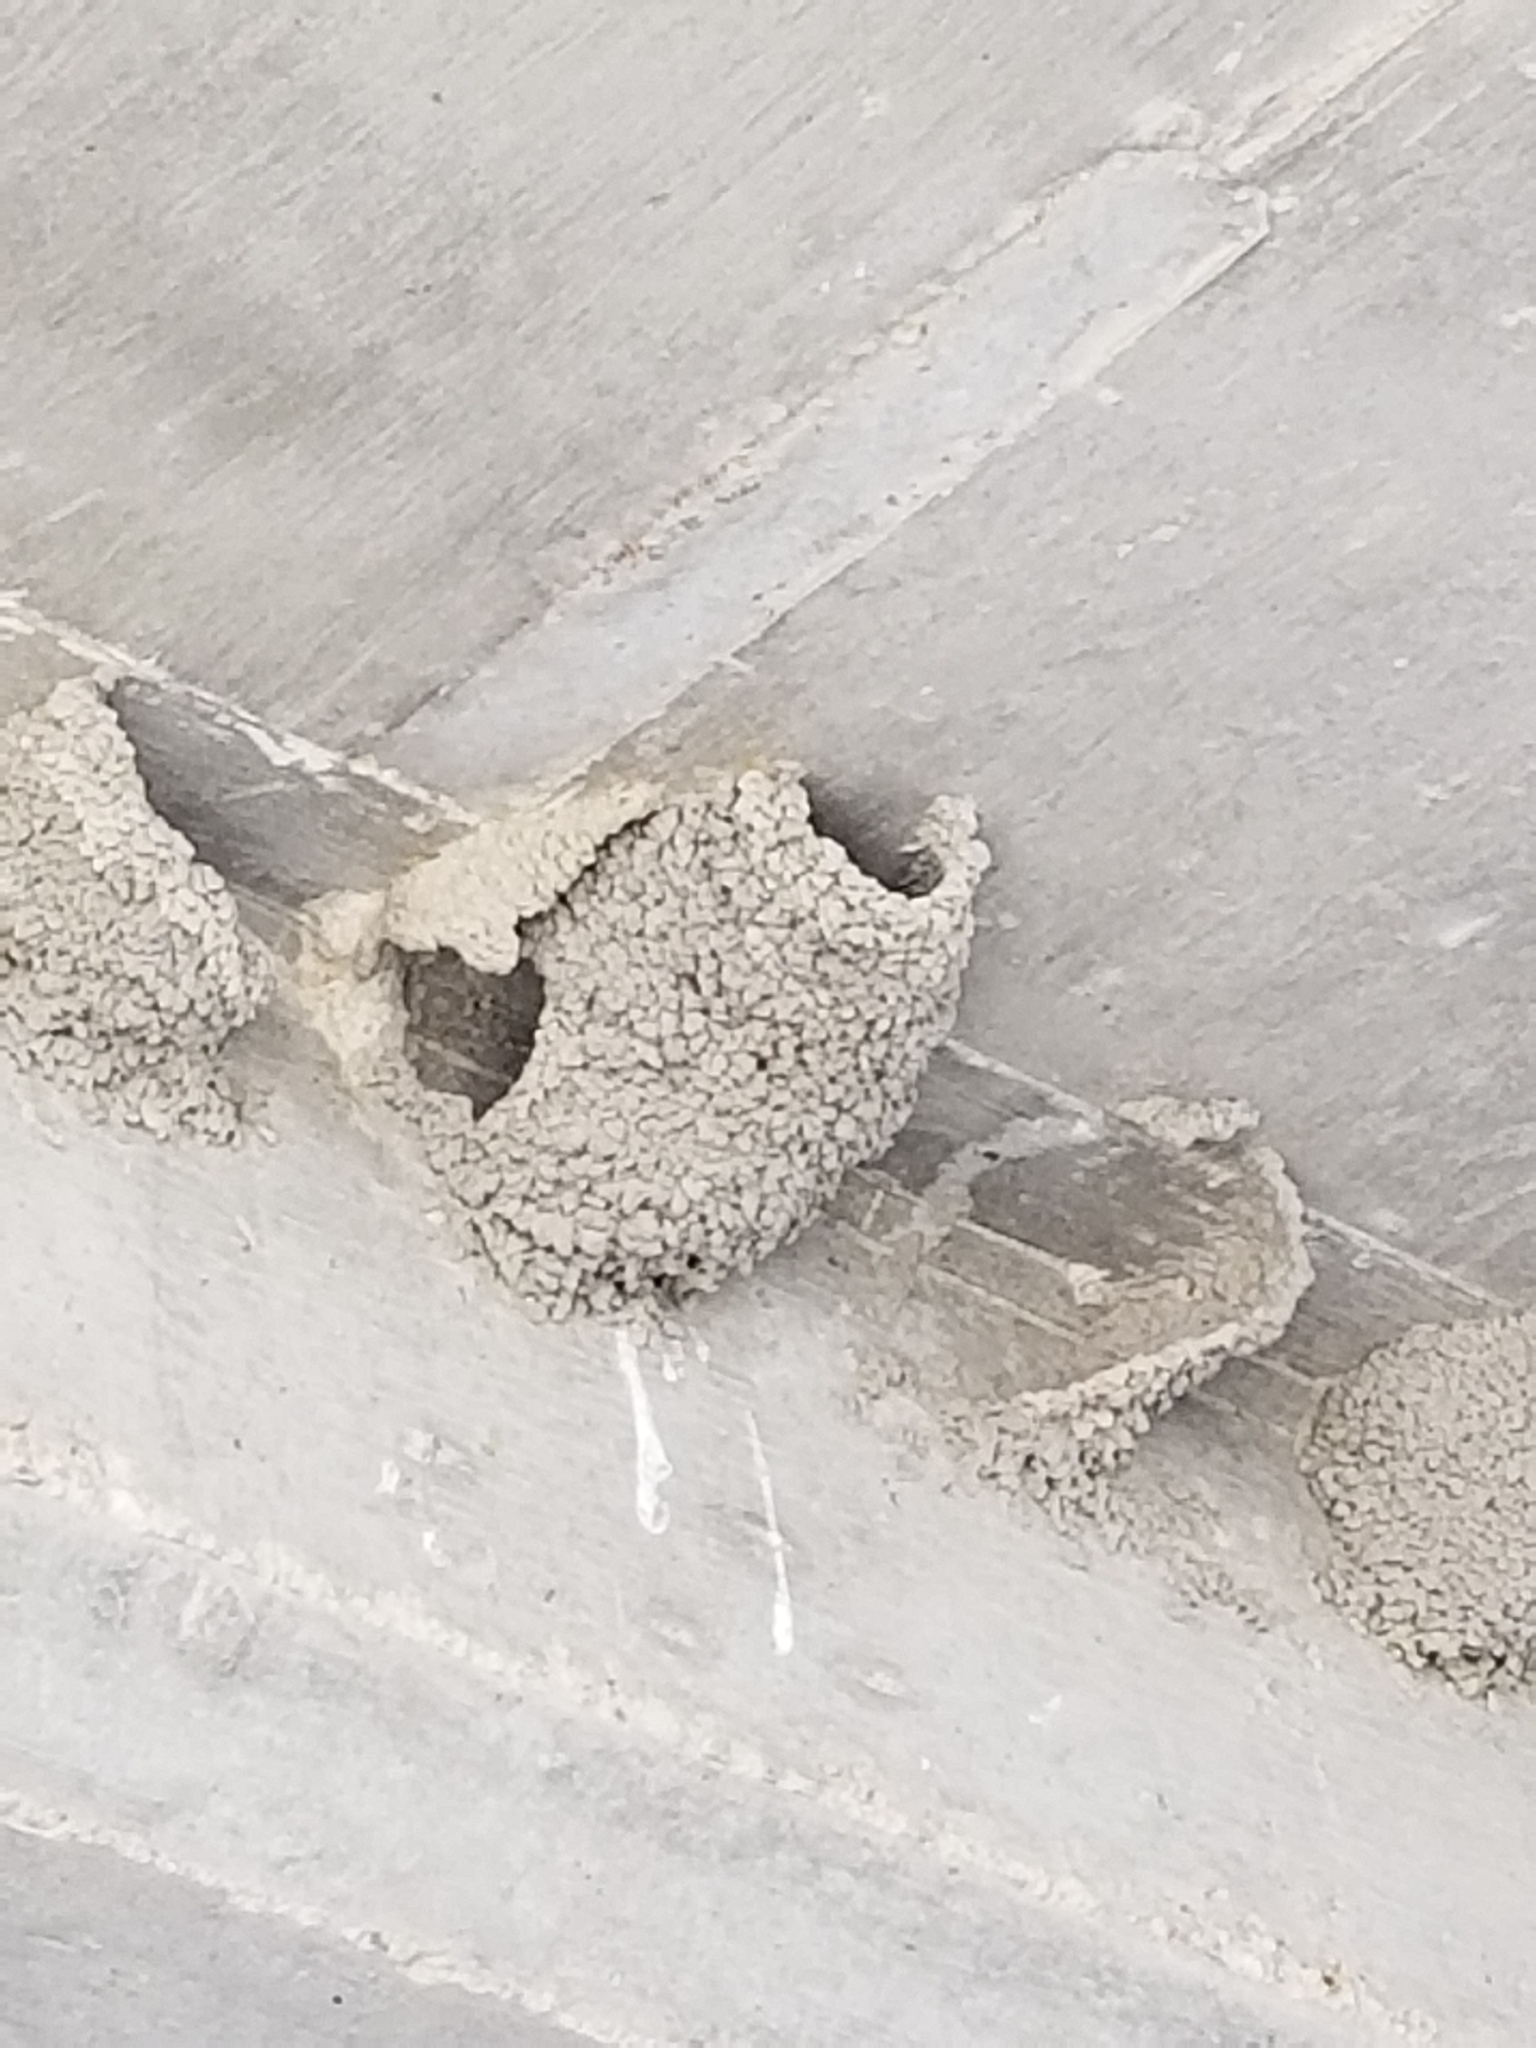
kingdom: Animalia
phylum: Chordata
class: Aves
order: Passeriformes
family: Hirundinidae
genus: Petrochelidon
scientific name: Petrochelidon pyrrhonota
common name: American cliff swallow
